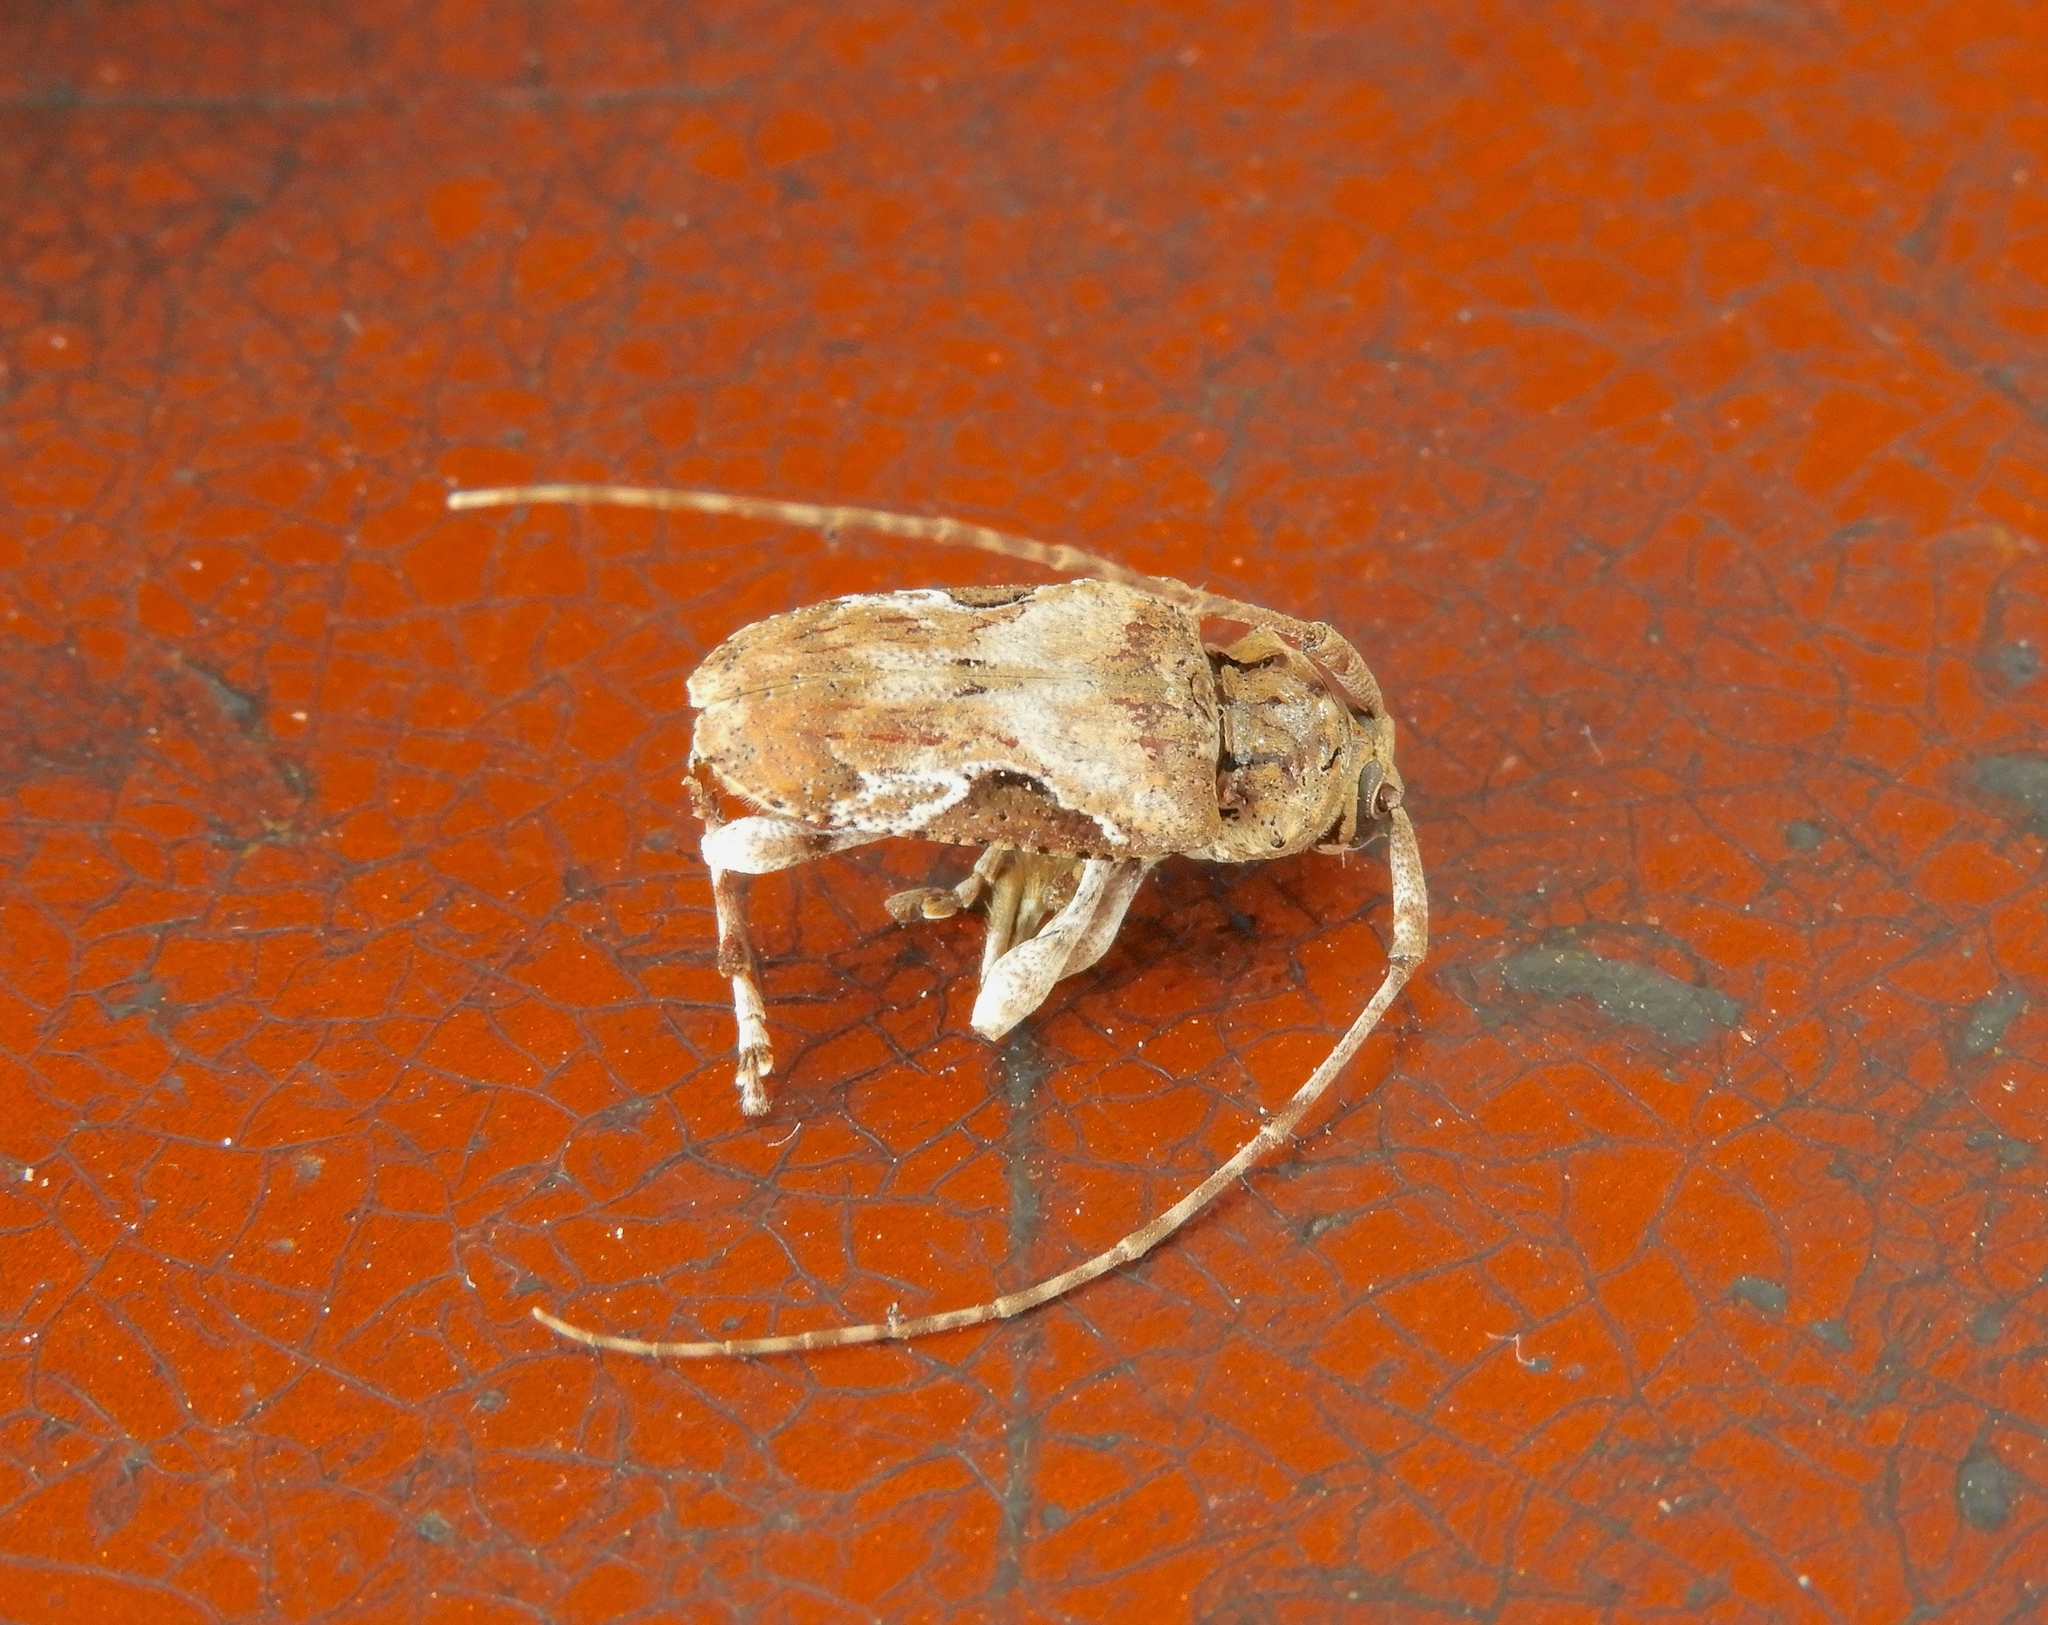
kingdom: Animalia
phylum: Arthropoda
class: Insecta
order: Coleoptera
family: Cerambycidae
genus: Lagocheirus
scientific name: Lagocheirus araneiformis
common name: Beetle
